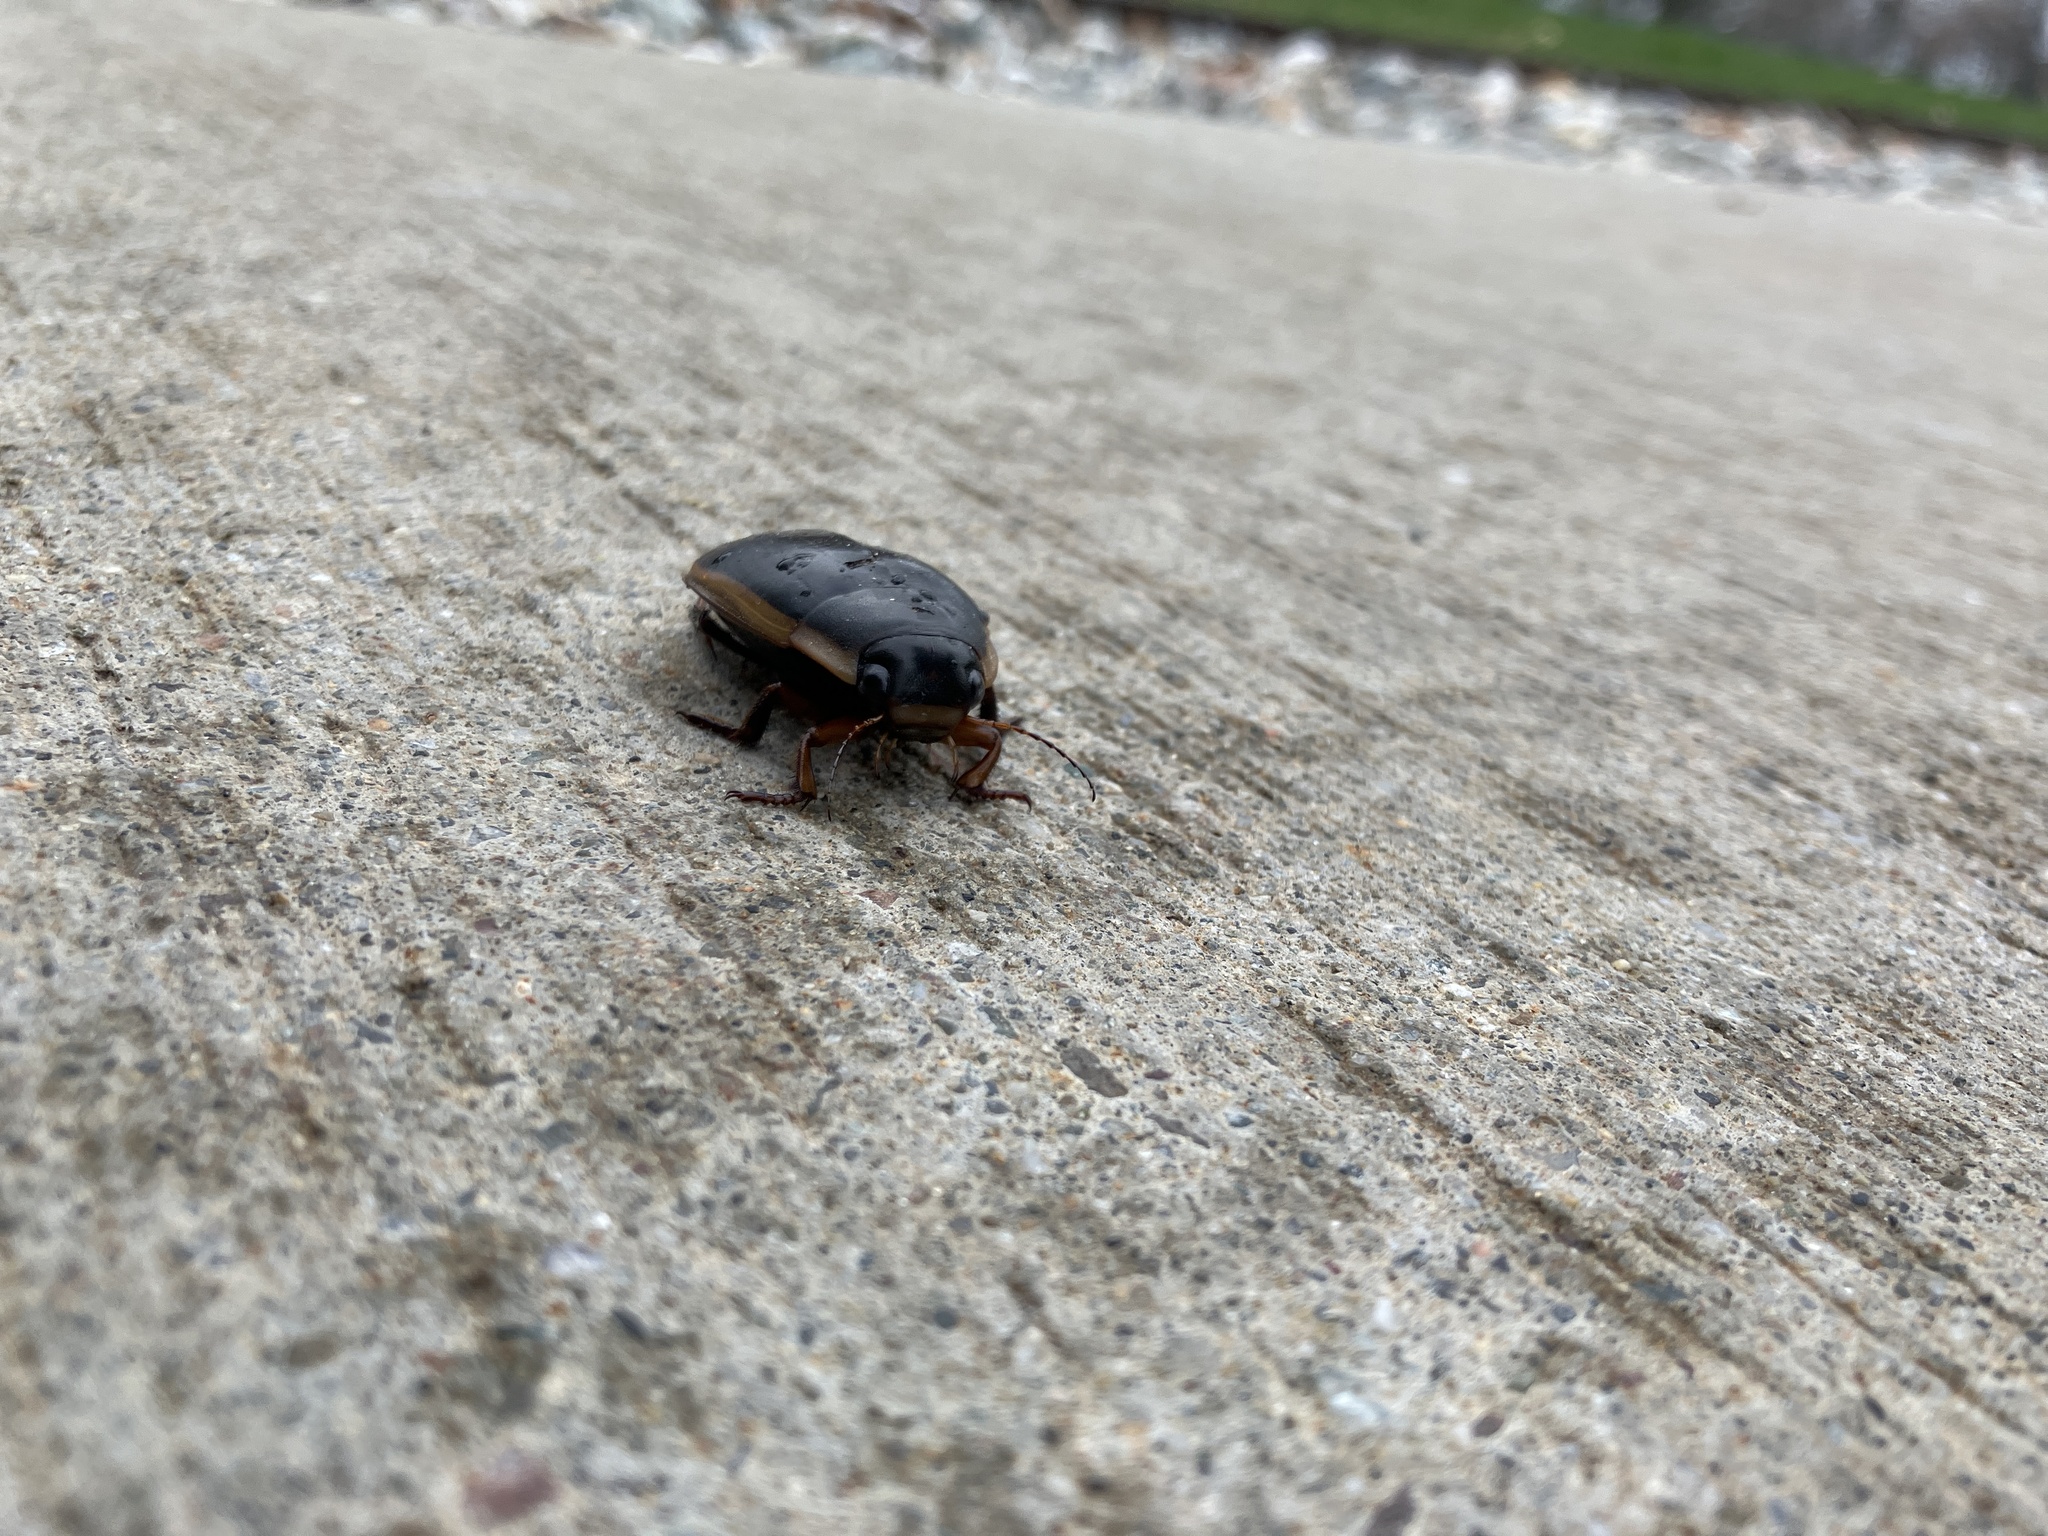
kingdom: Animalia
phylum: Arthropoda
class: Insecta
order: Coleoptera
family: Dytiscidae
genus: Dytiscus
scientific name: Dytiscus verticalis
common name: Vertical diving beetle
